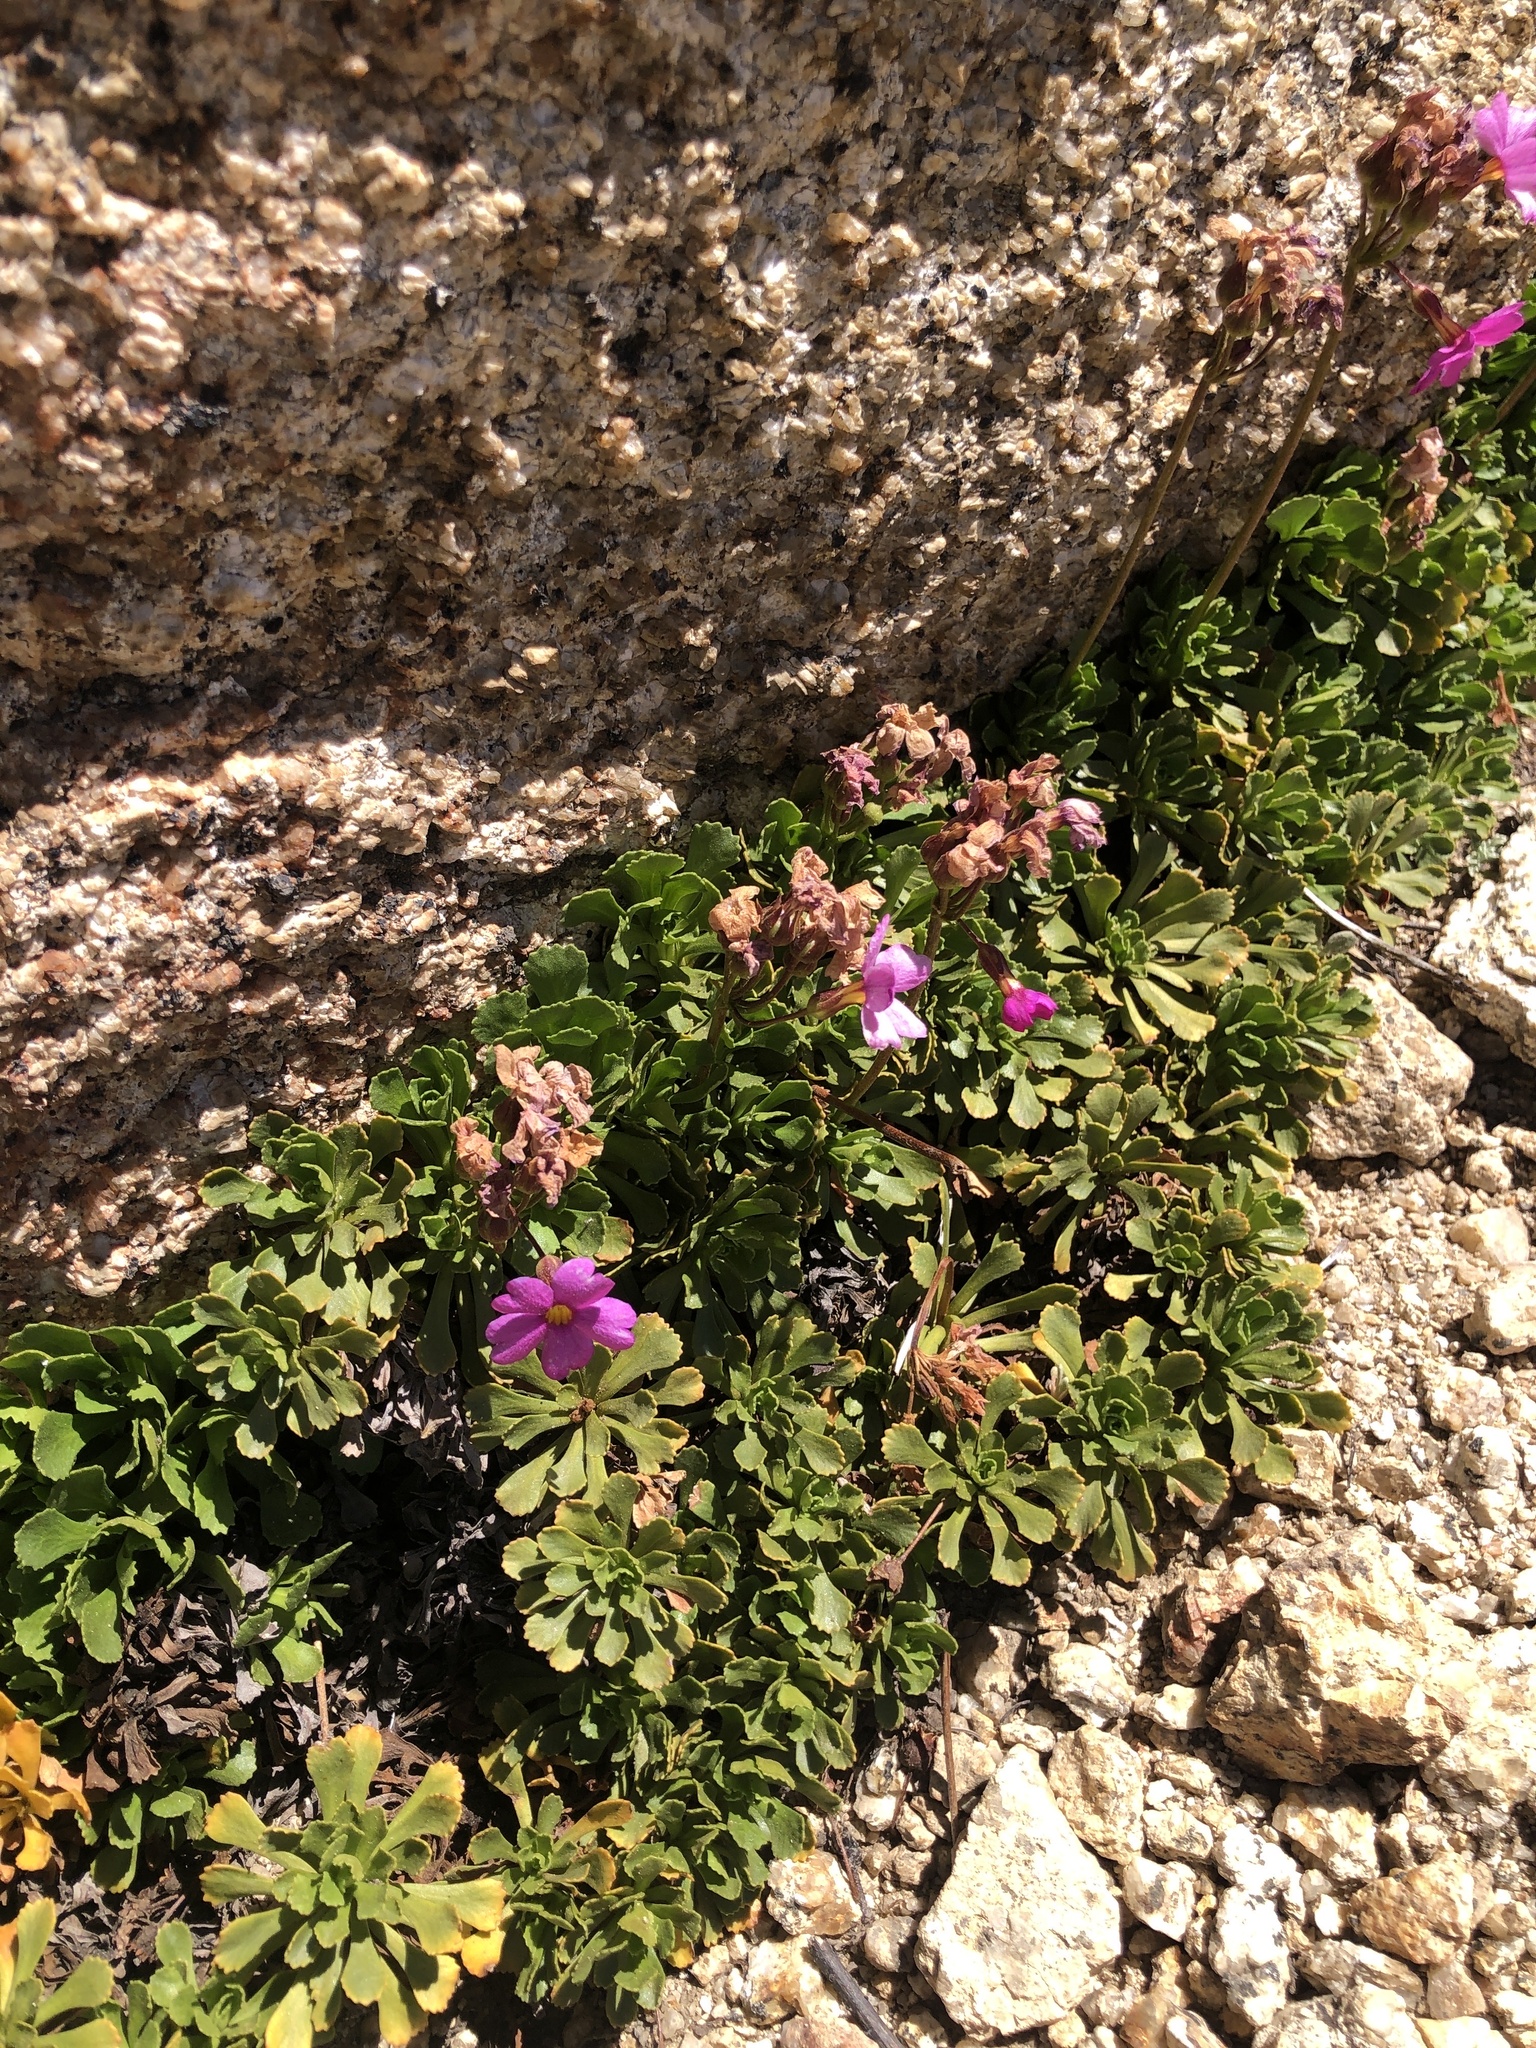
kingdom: Plantae
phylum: Tracheophyta
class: Magnoliopsida
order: Ericales
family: Primulaceae
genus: Primula
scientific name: Primula suffrutescens
